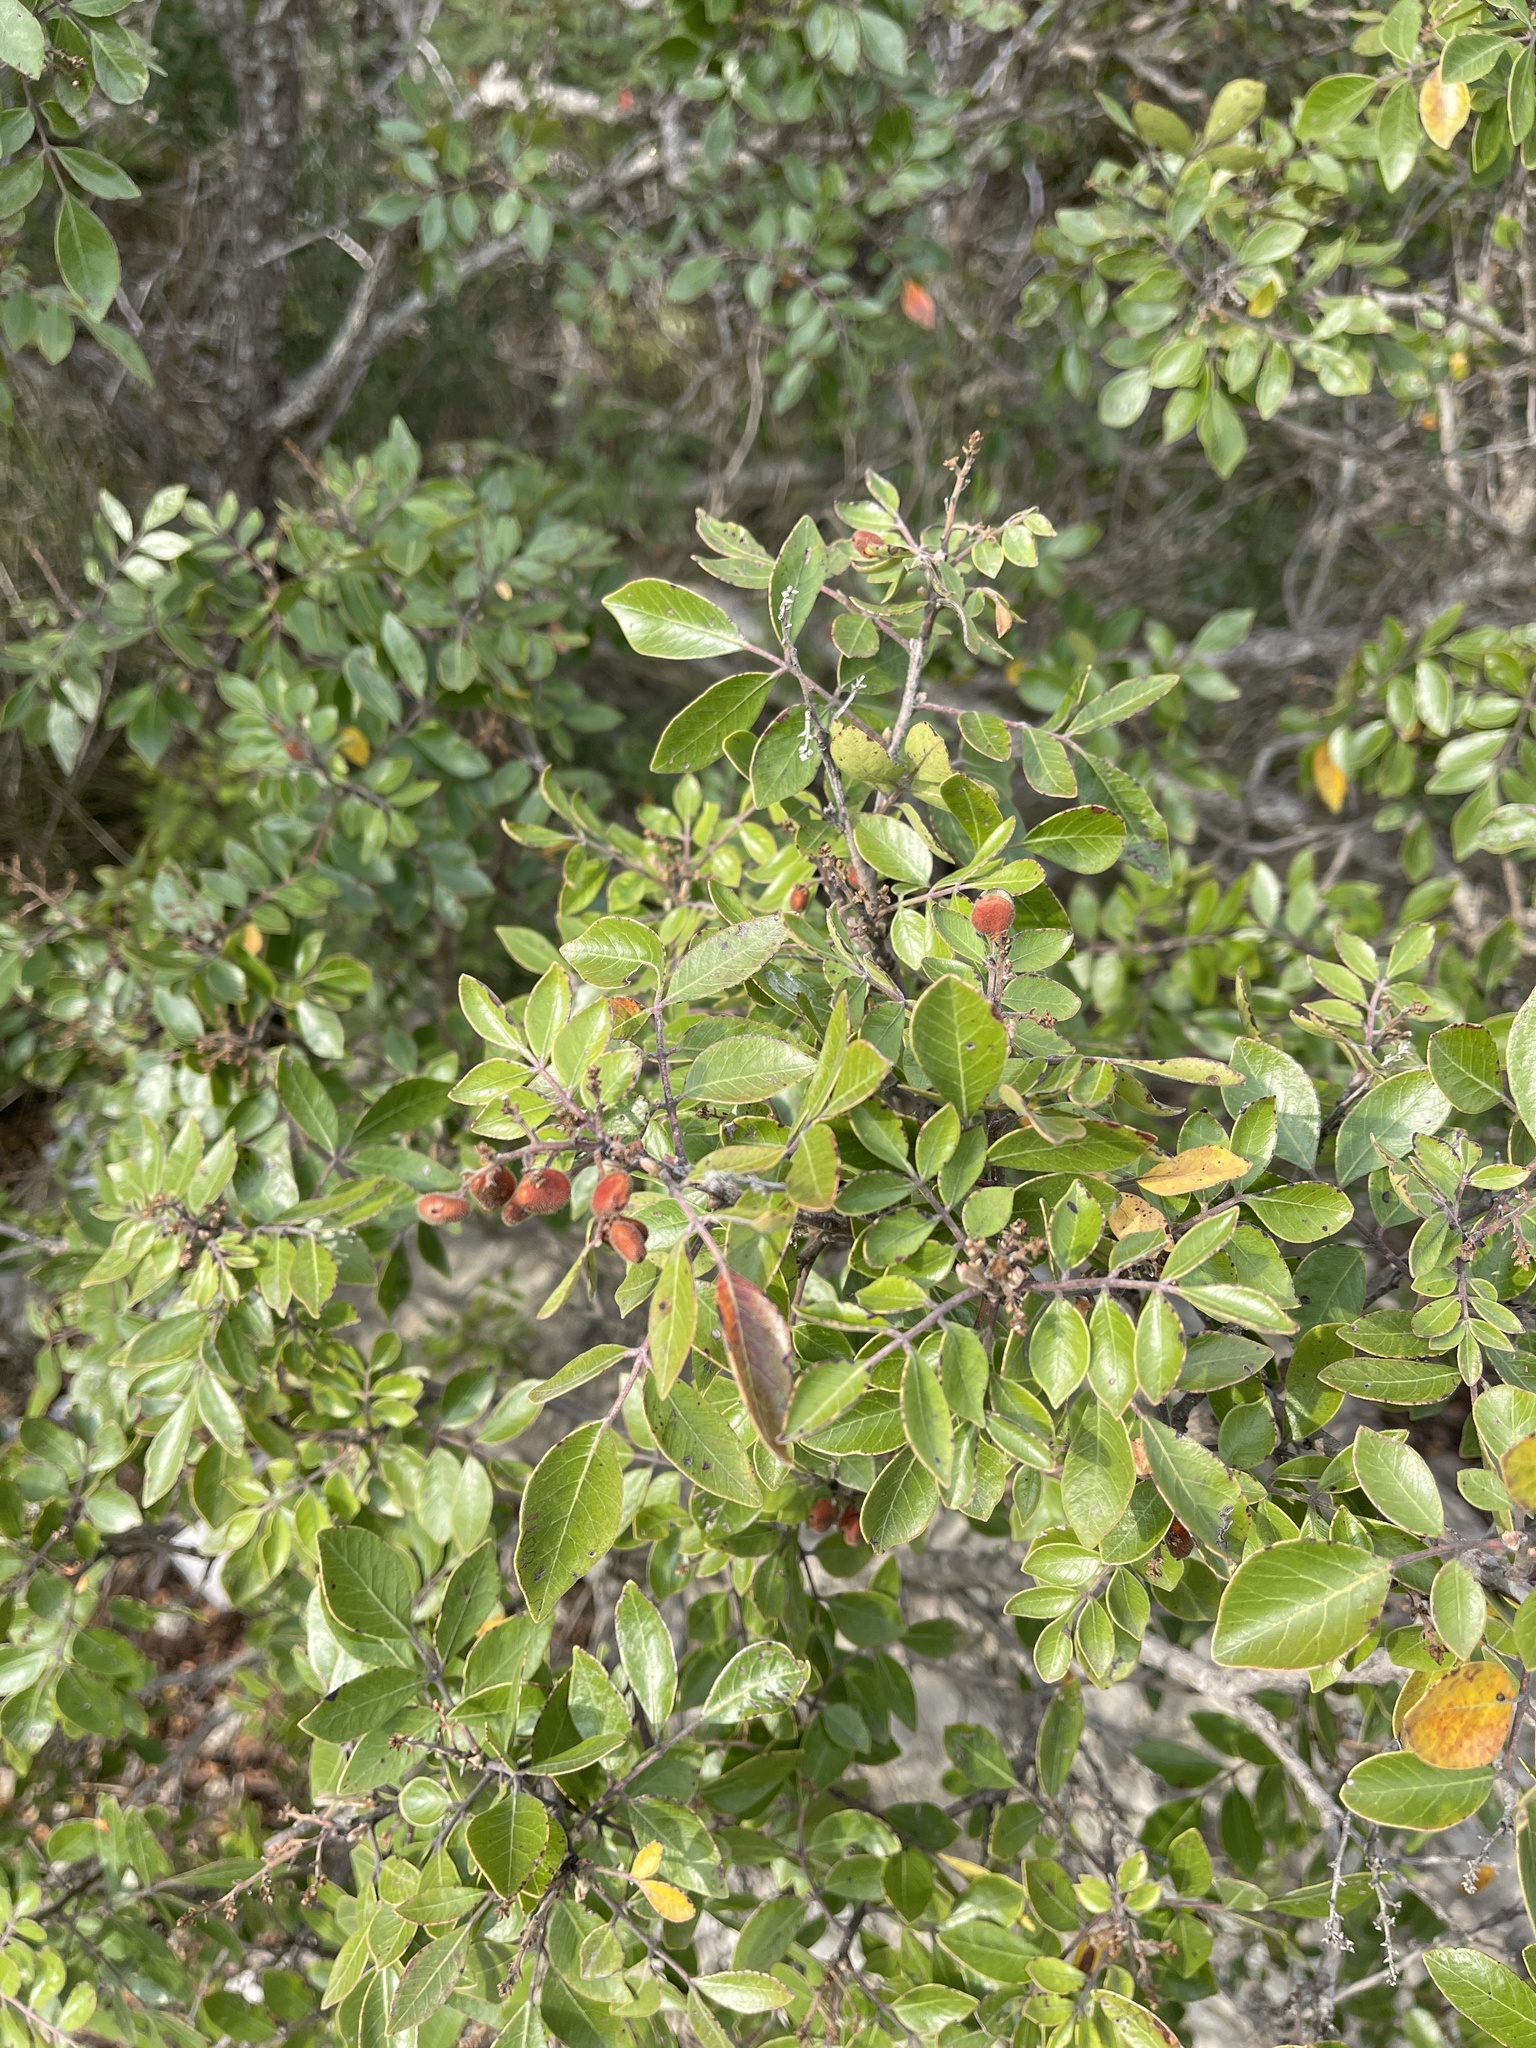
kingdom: Plantae
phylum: Tracheophyta
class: Magnoliopsida
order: Sapindales
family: Anacardiaceae
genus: Rhus
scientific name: Rhus virens
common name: Evergreen sumac
